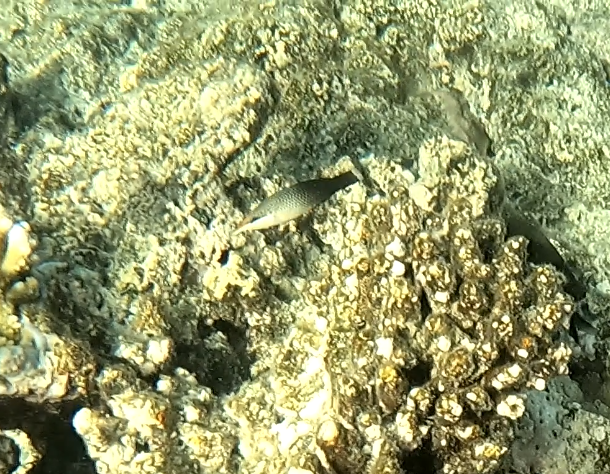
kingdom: Animalia
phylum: Chordata
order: Perciformes
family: Labridae
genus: Gomphosus
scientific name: Gomphosus varius
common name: Bird wrasse
